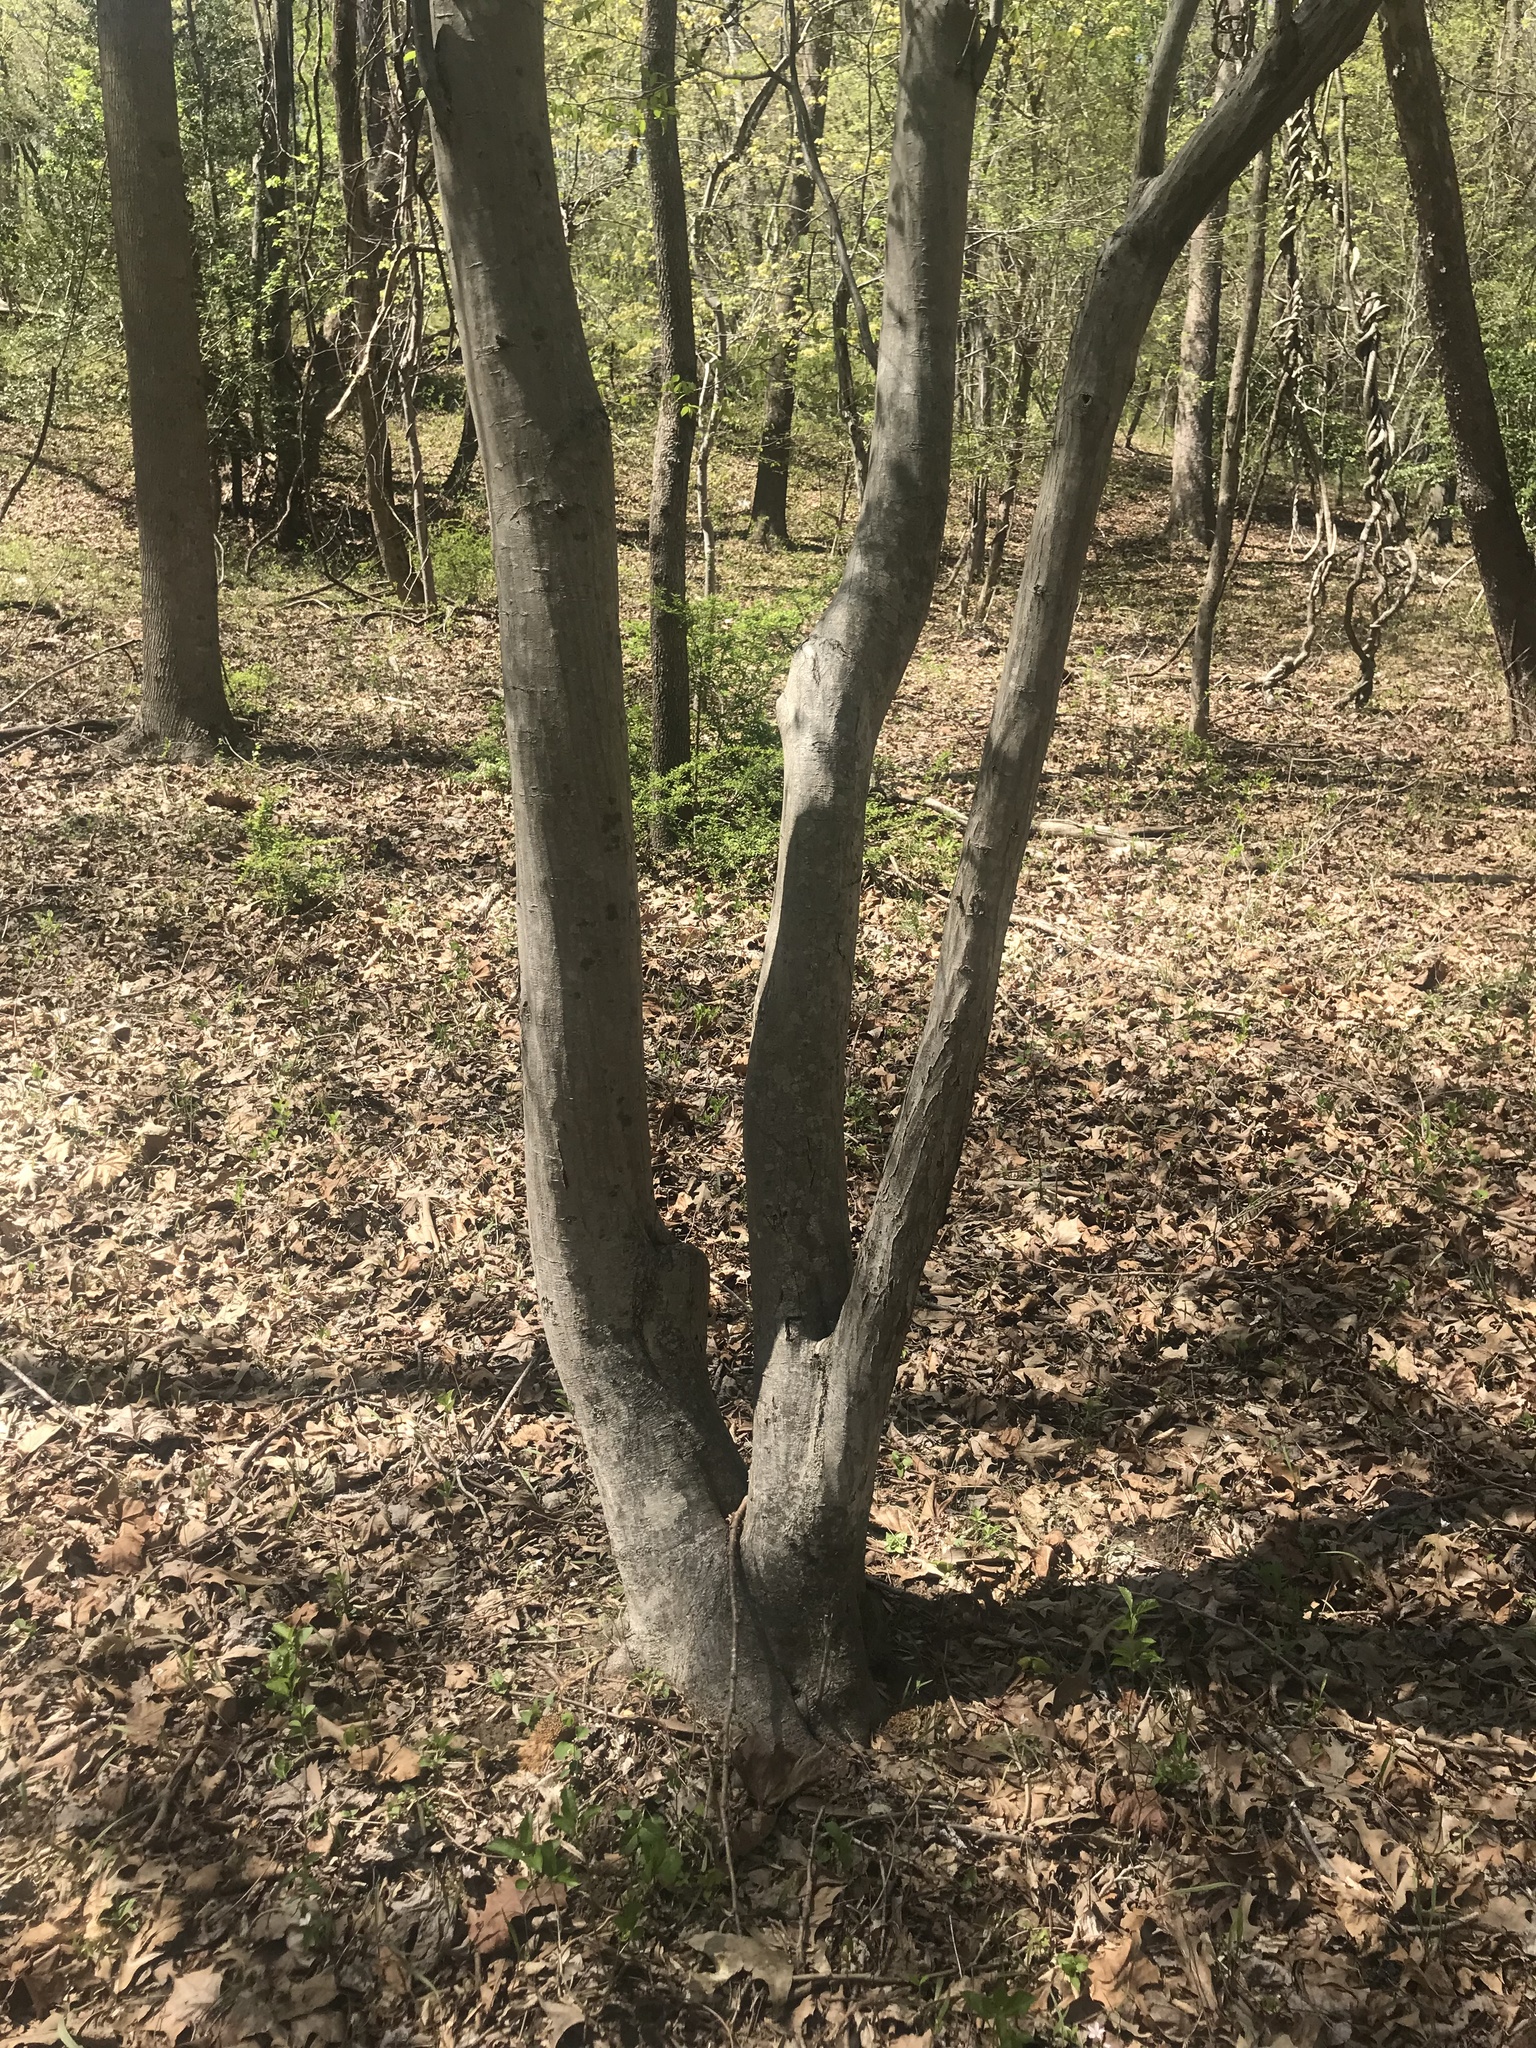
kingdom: Plantae
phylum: Tracheophyta
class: Magnoliopsida
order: Fagales
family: Betulaceae
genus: Carpinus
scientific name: Carpinus caroliniana
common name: American hornbeam
